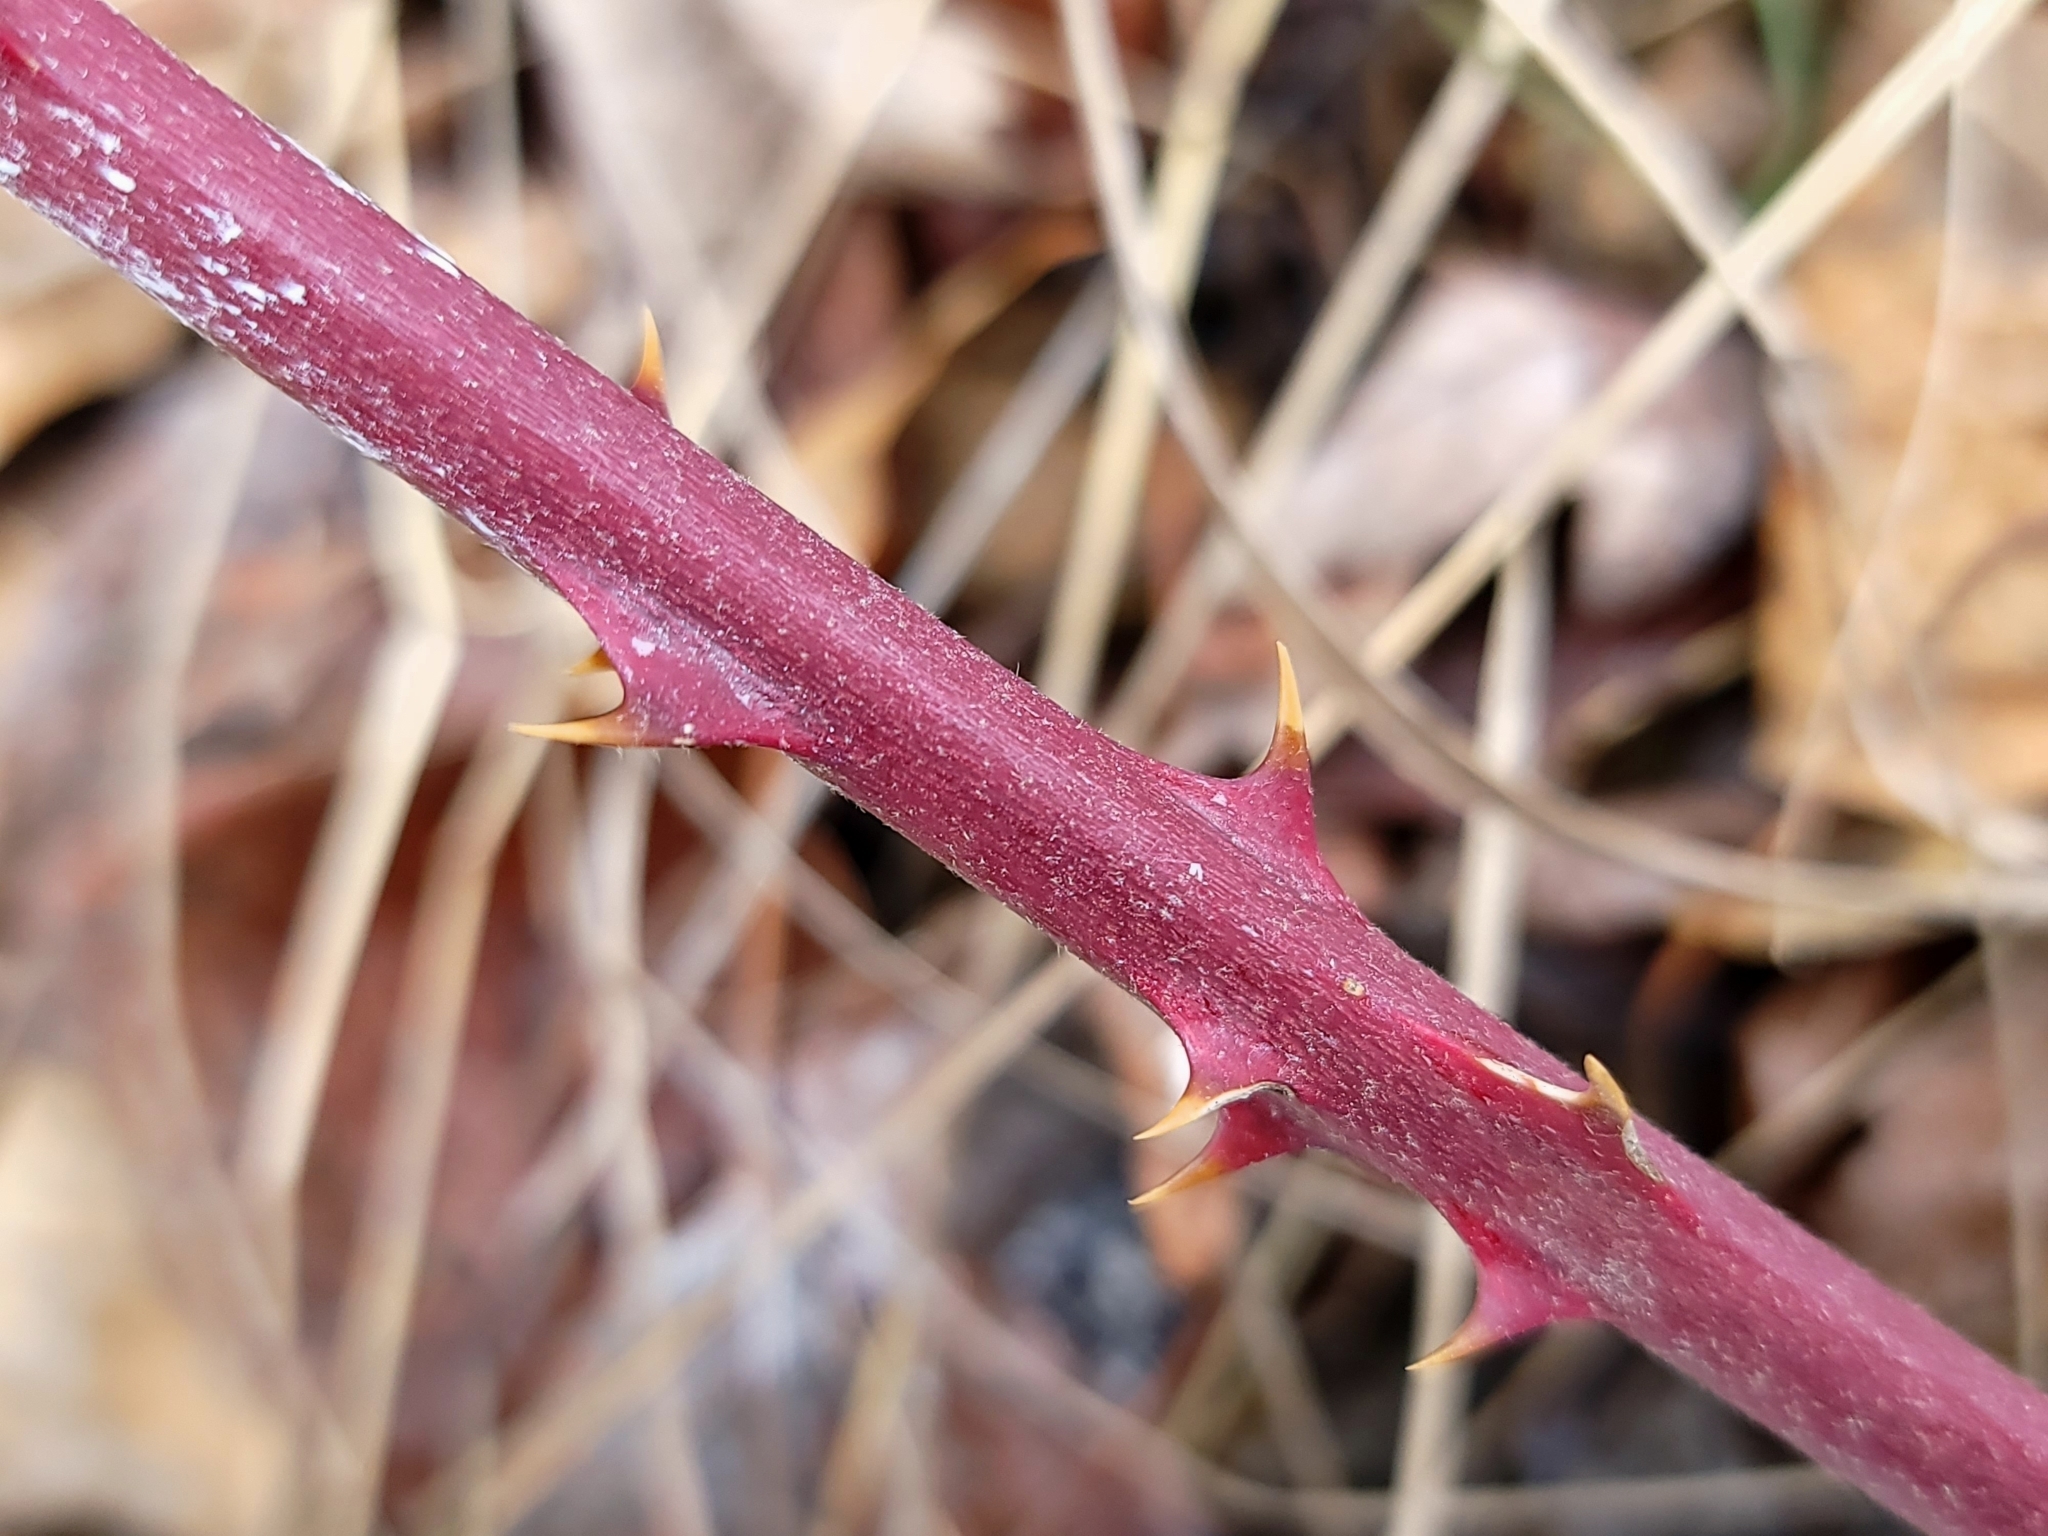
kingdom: Plantae
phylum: Tracheophyta
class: Magnoliopsida
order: Rosales
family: Rosaceae
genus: Rubus
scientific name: Rubus bifrons
